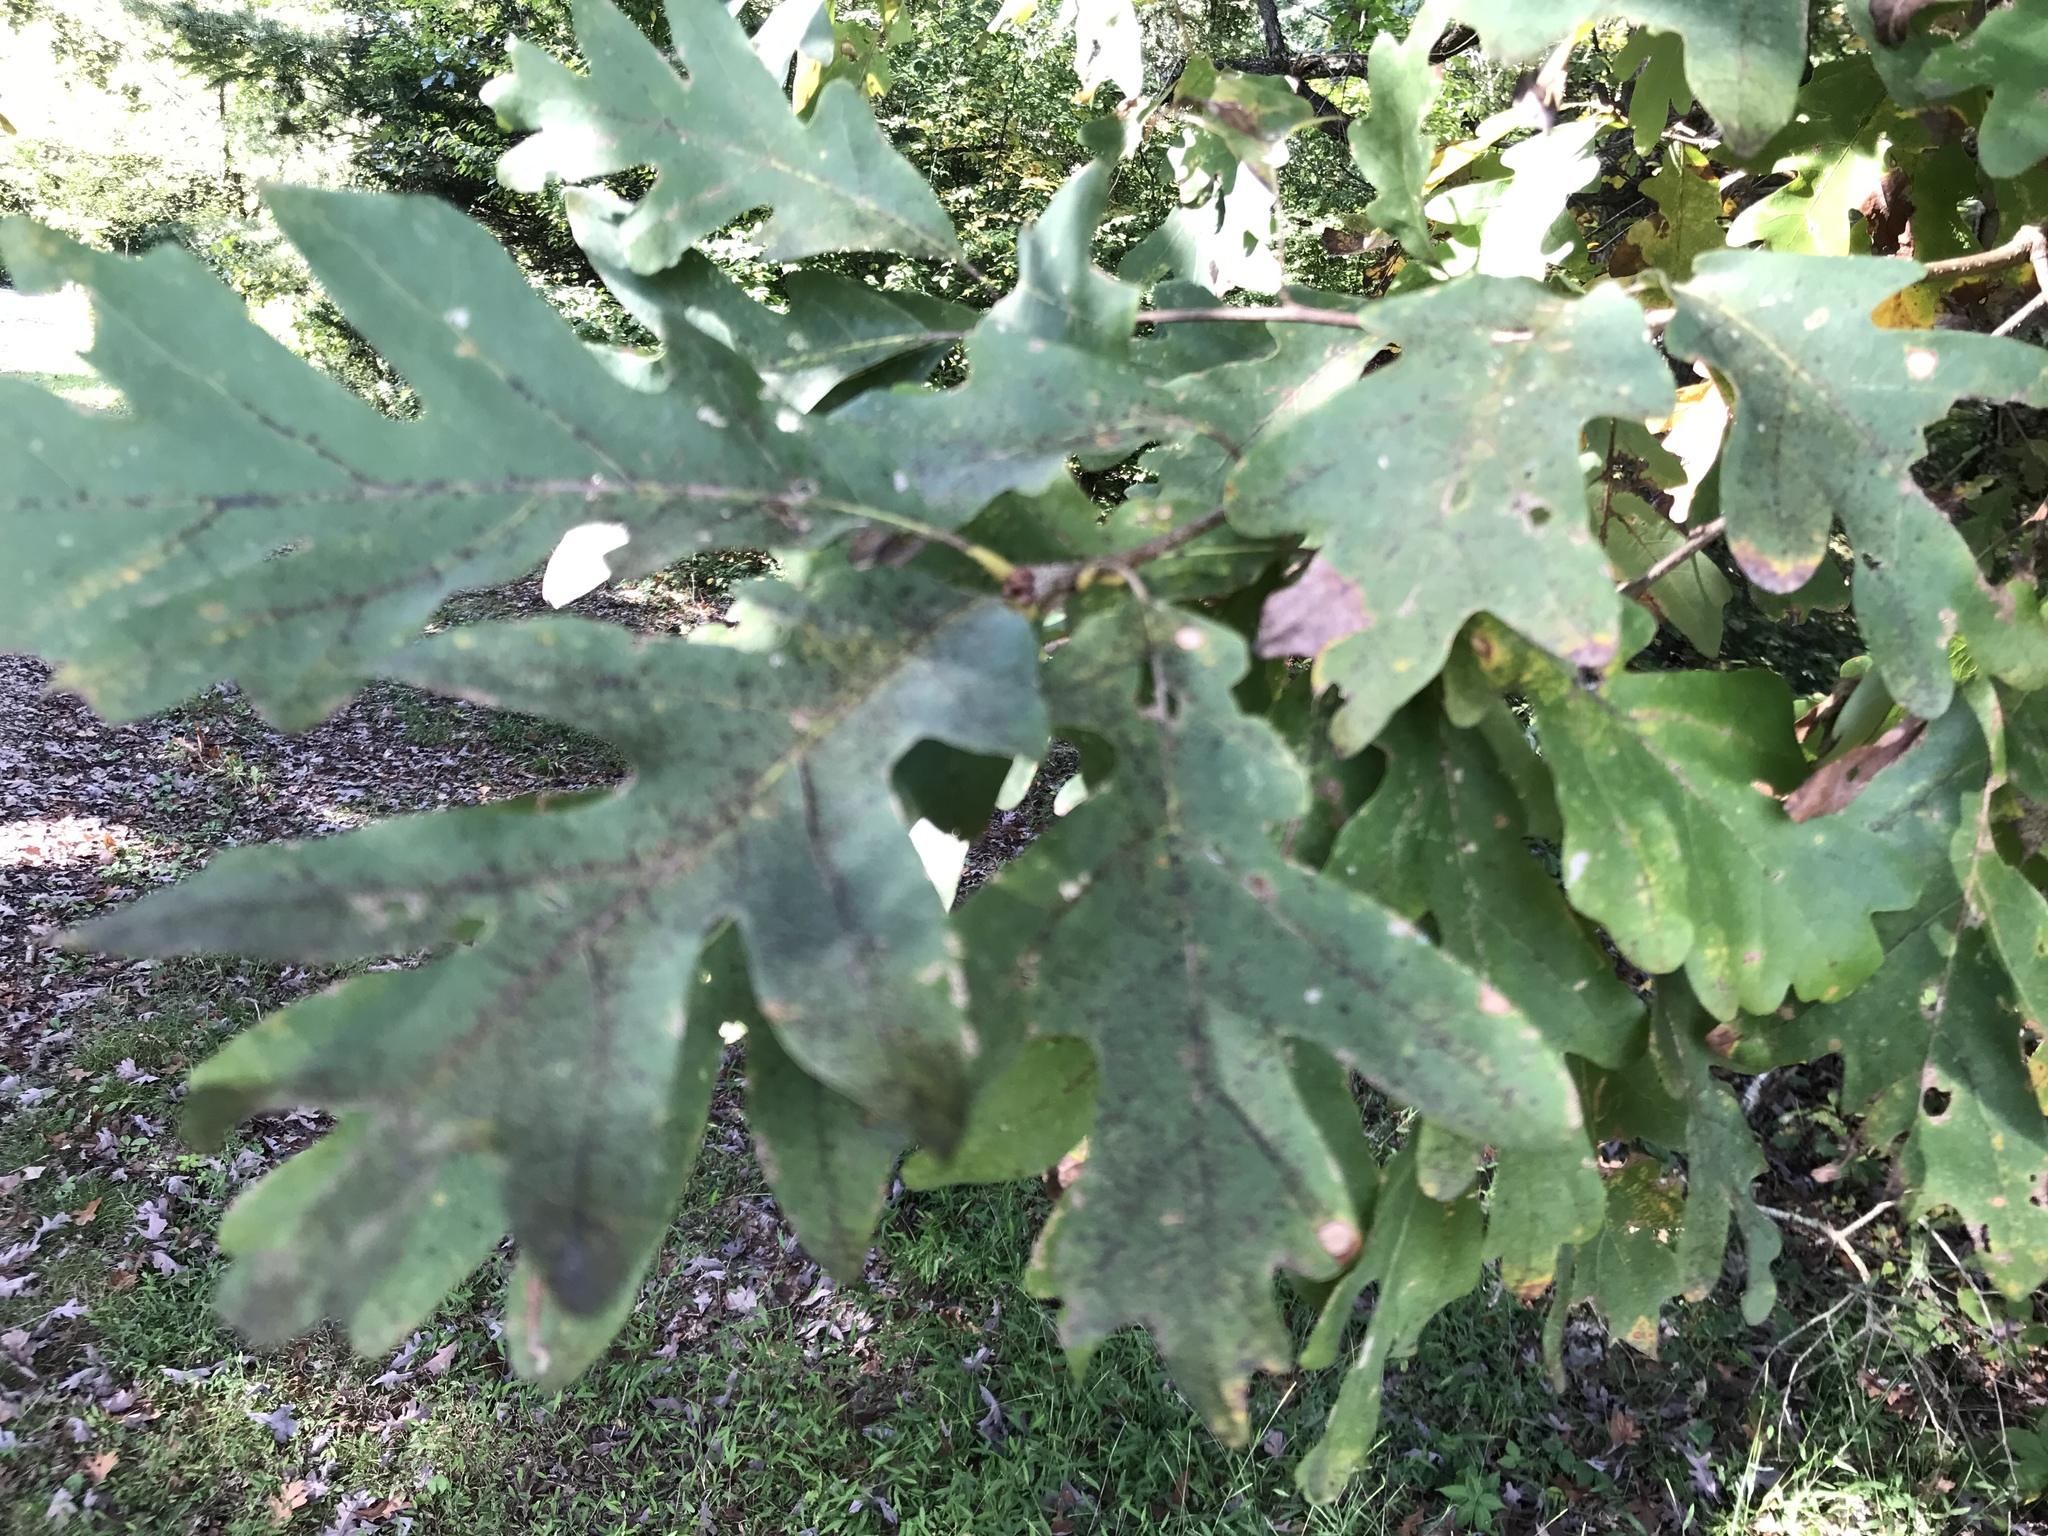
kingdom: Plantae
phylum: Tracheophyta
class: Magnoliopsida
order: Fagales
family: Fagaceae
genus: Quercus
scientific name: Quercus alba
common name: White oak
